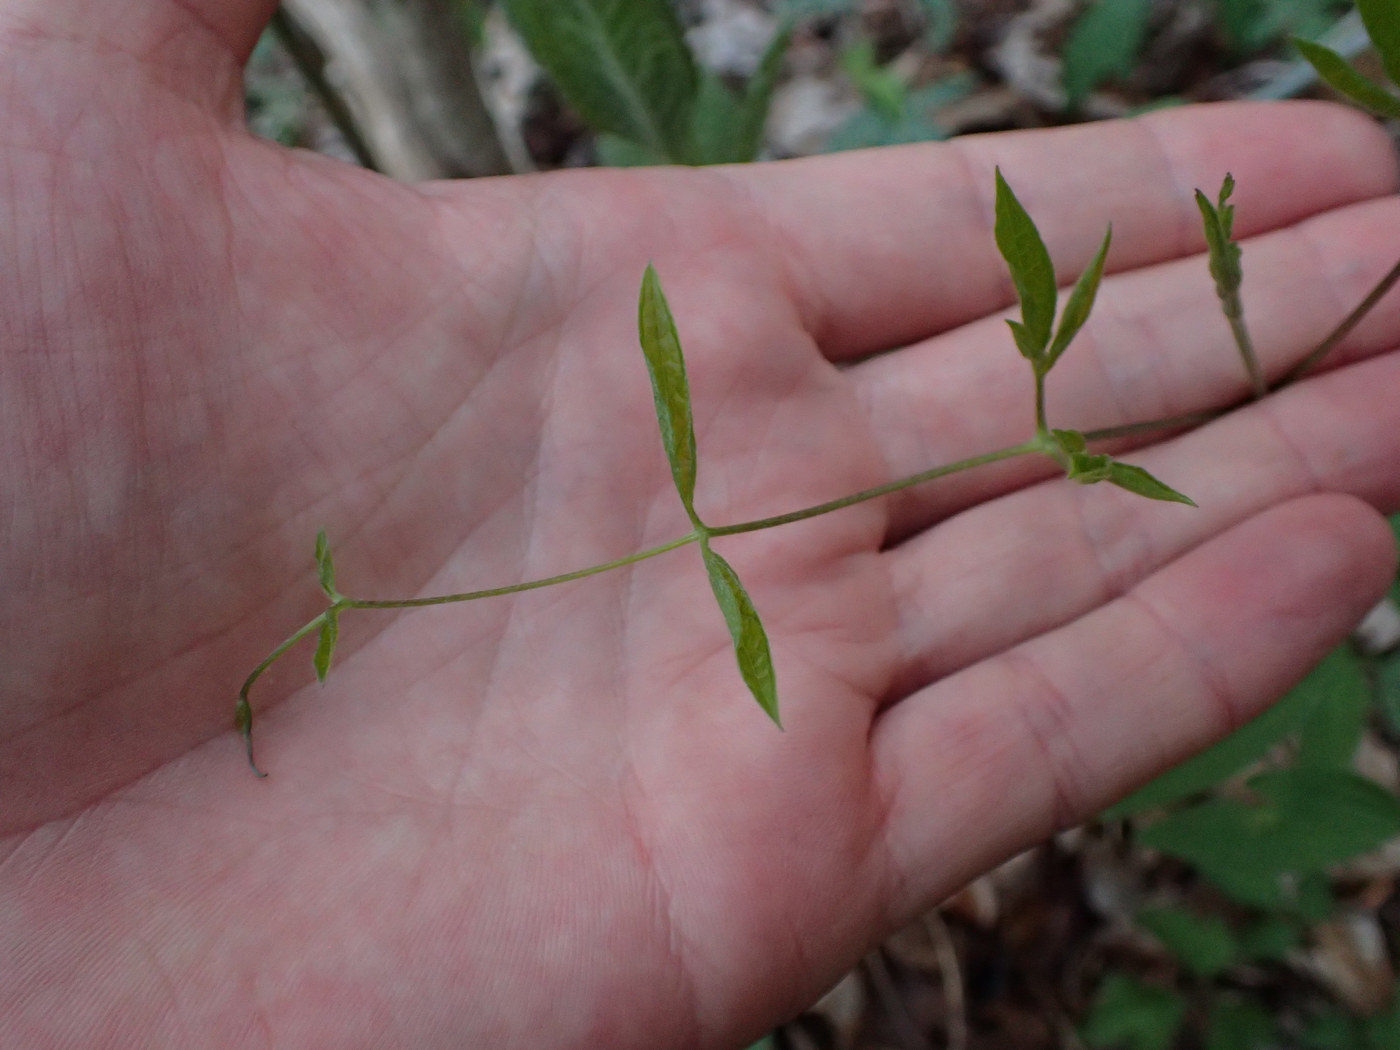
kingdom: Plantae
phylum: Tracheophyta
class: Magnoliopsida
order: Ranunculales
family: Ranunculaceae
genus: Clematis
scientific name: Clematis viorna
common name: Leather-flower
